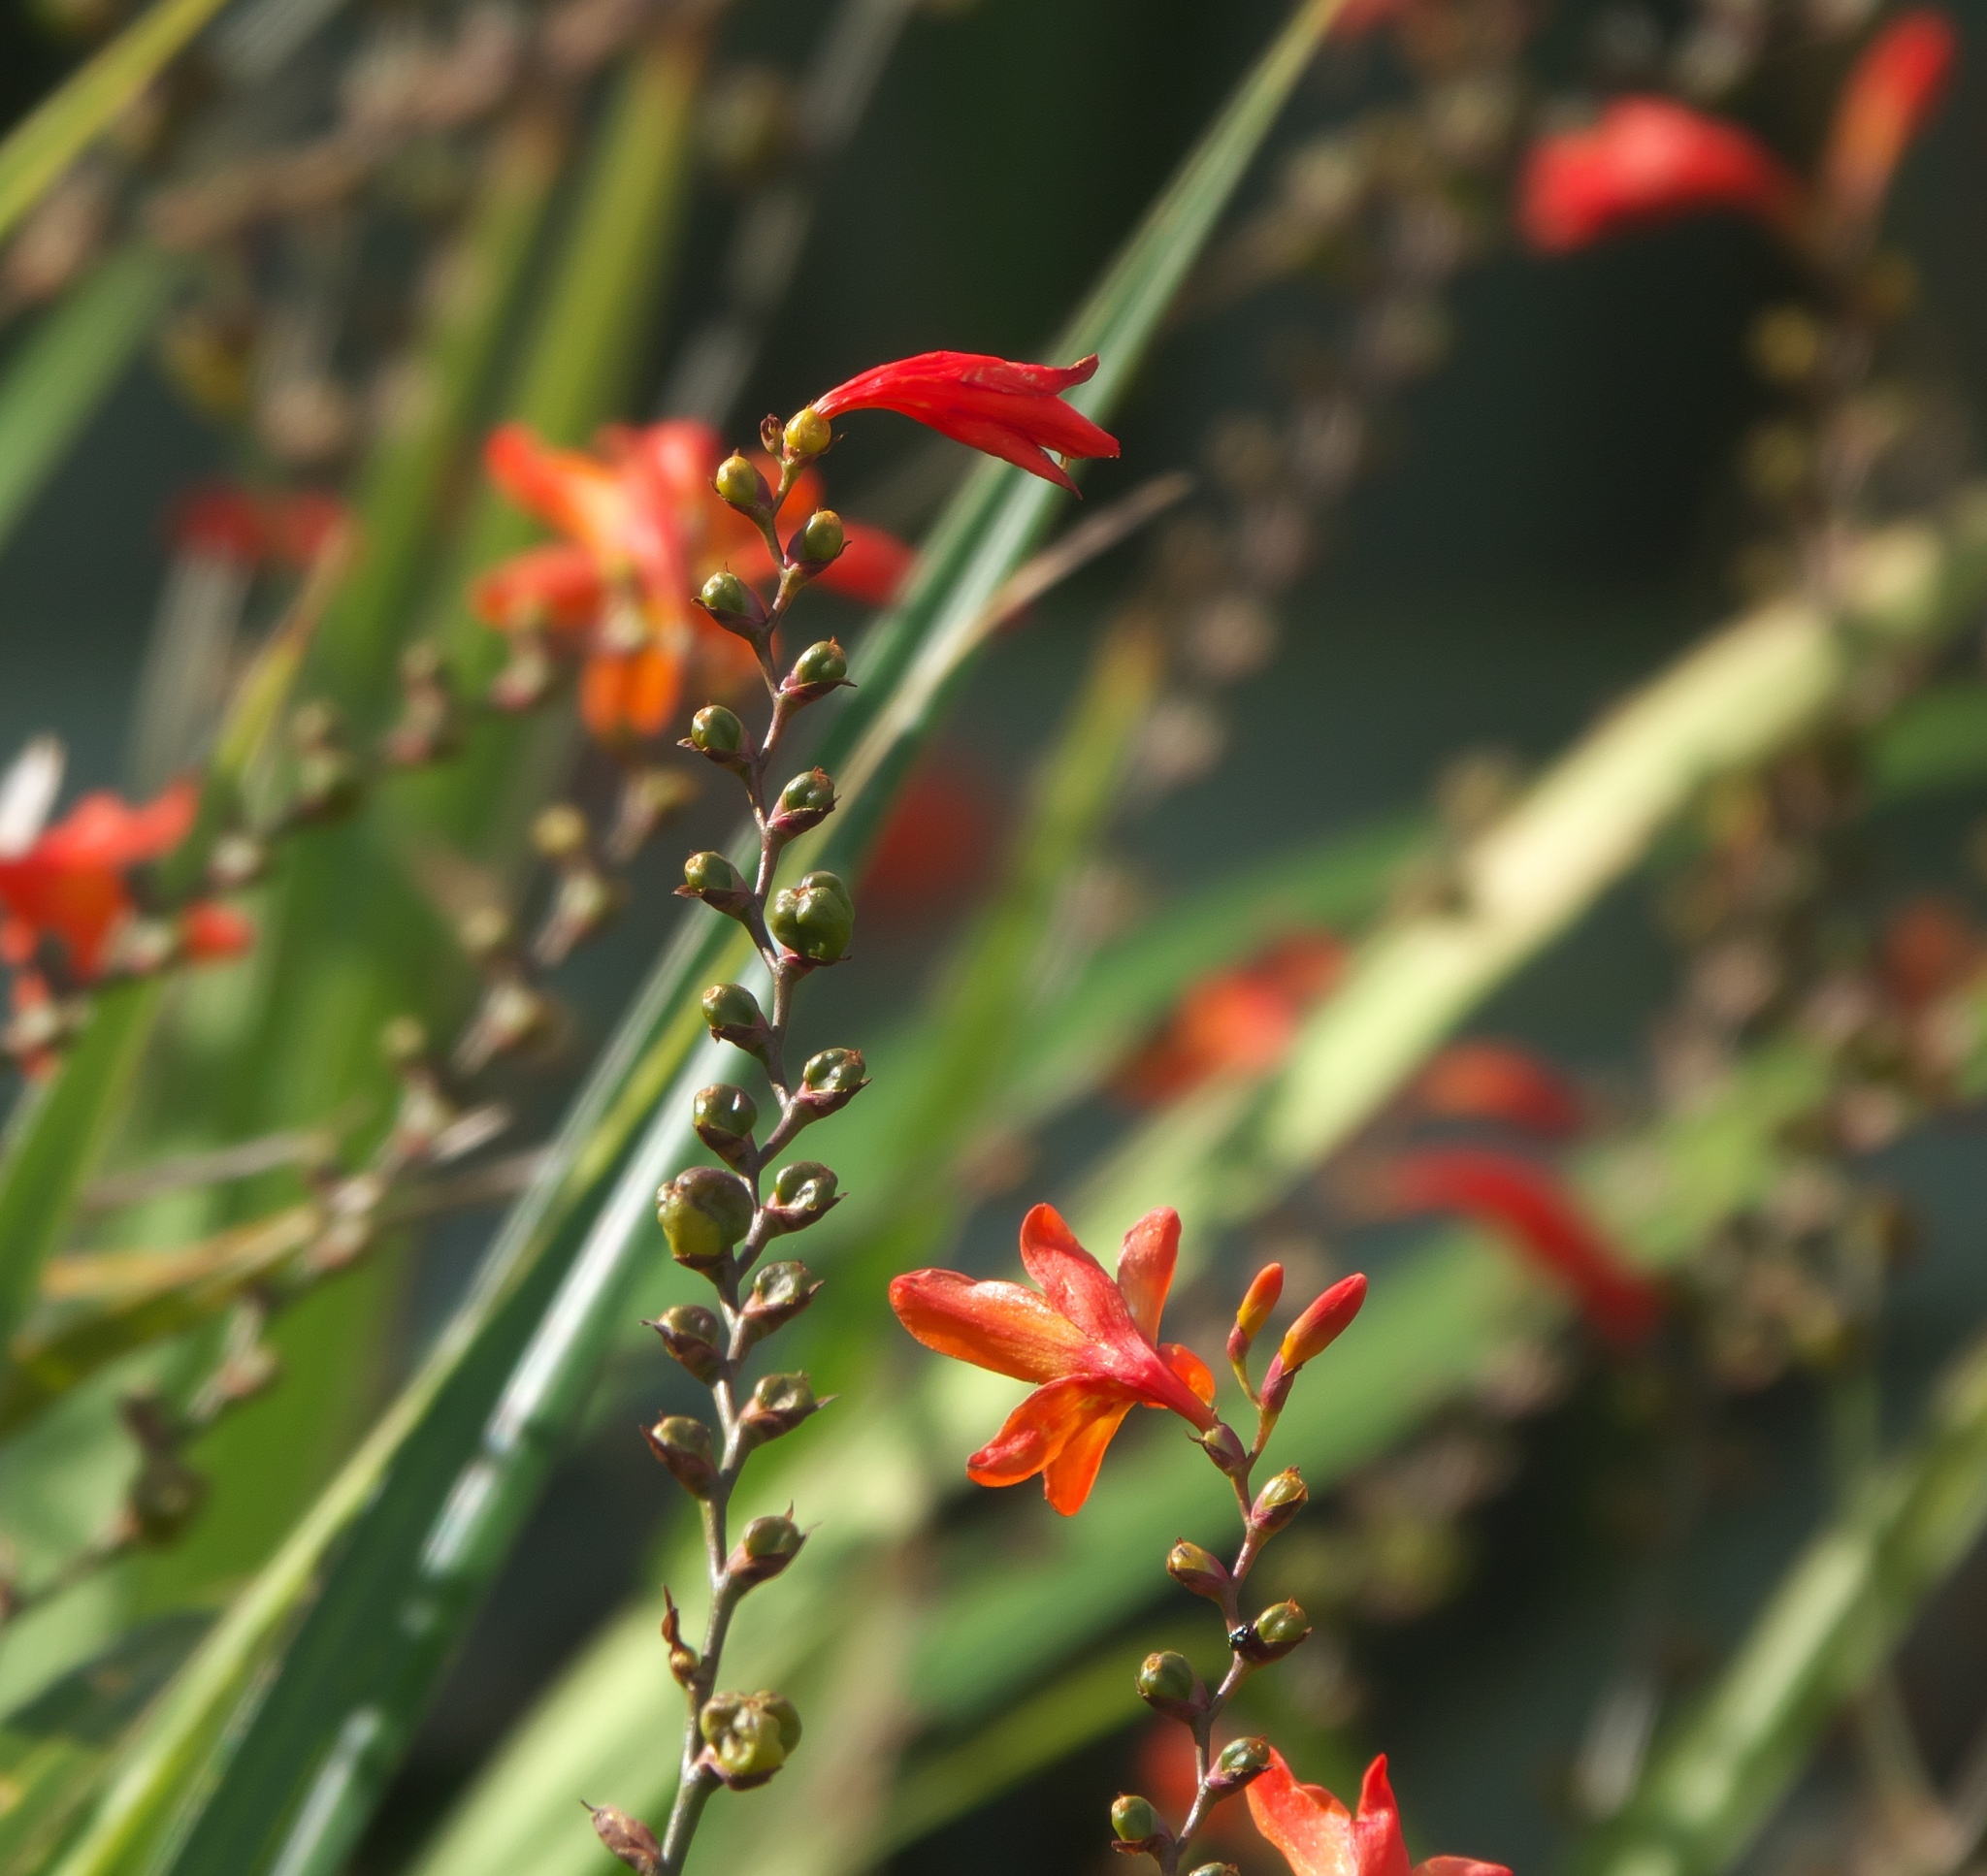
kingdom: Plantae
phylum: Tracheophyta
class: Liliopsida
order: Asparagales
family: Iridaceae
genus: Crocosmia
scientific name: Crocosmia crocosmiiflora
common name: Montbretia
